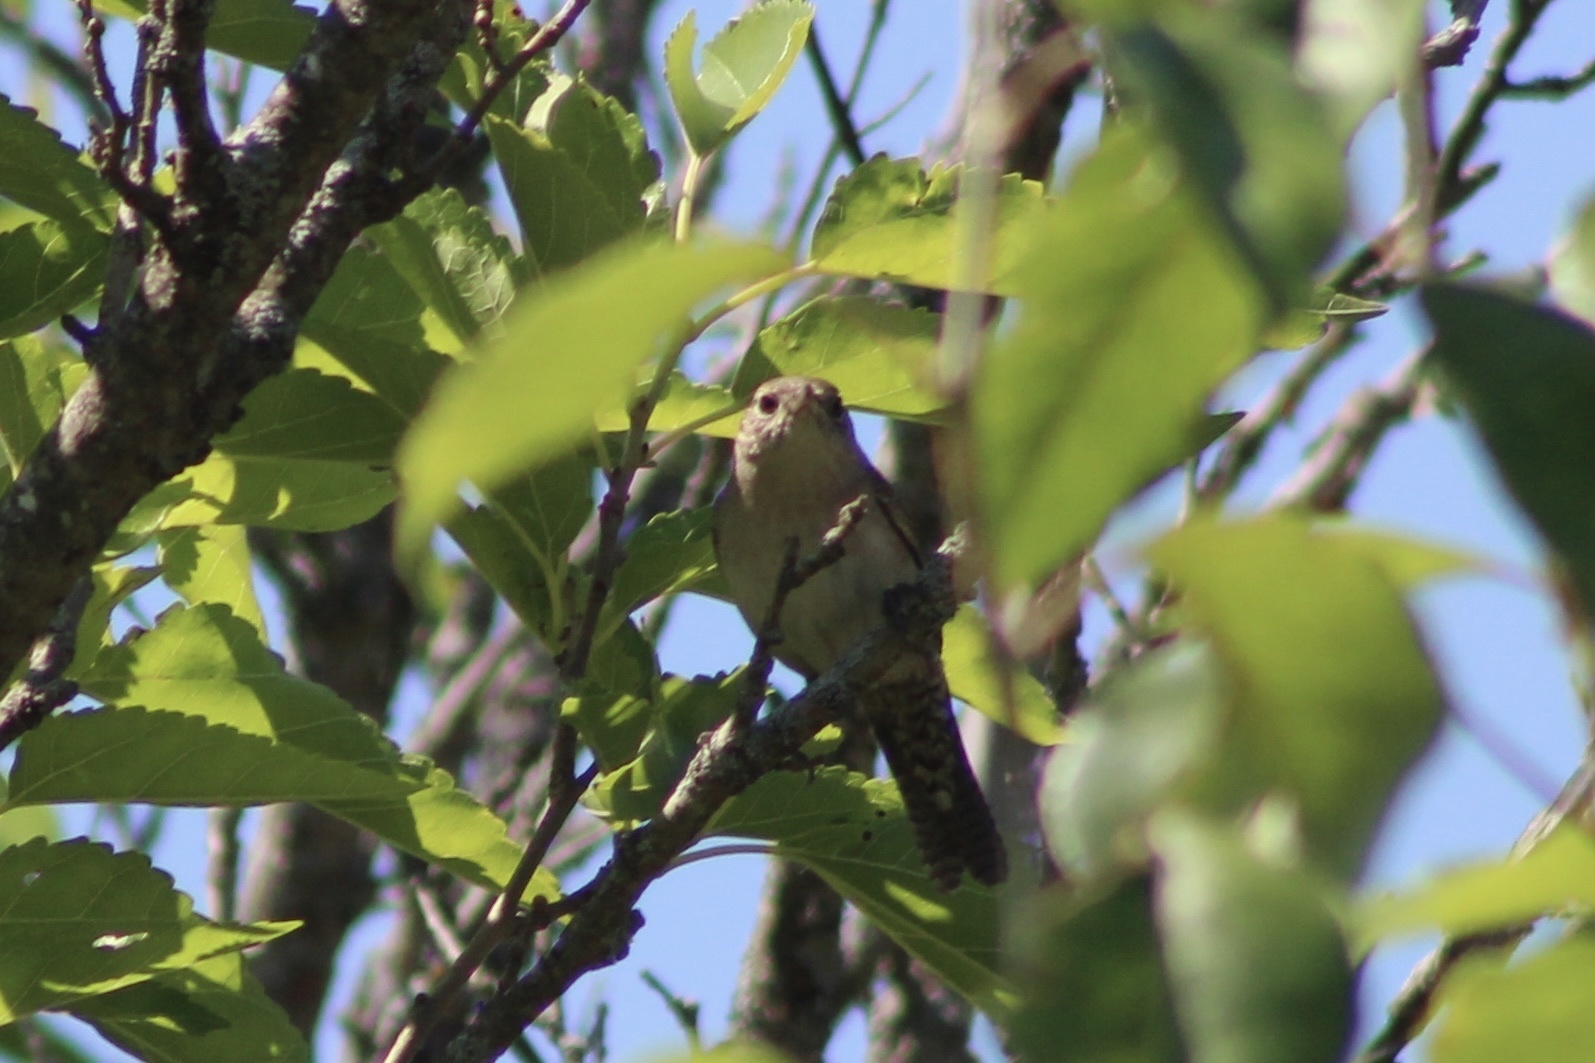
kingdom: Animalia
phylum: Chordata
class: Aves
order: Passeriformes
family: Troglodytidae
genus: Troglodytes
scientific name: Troglodytes aedon
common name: House wren
